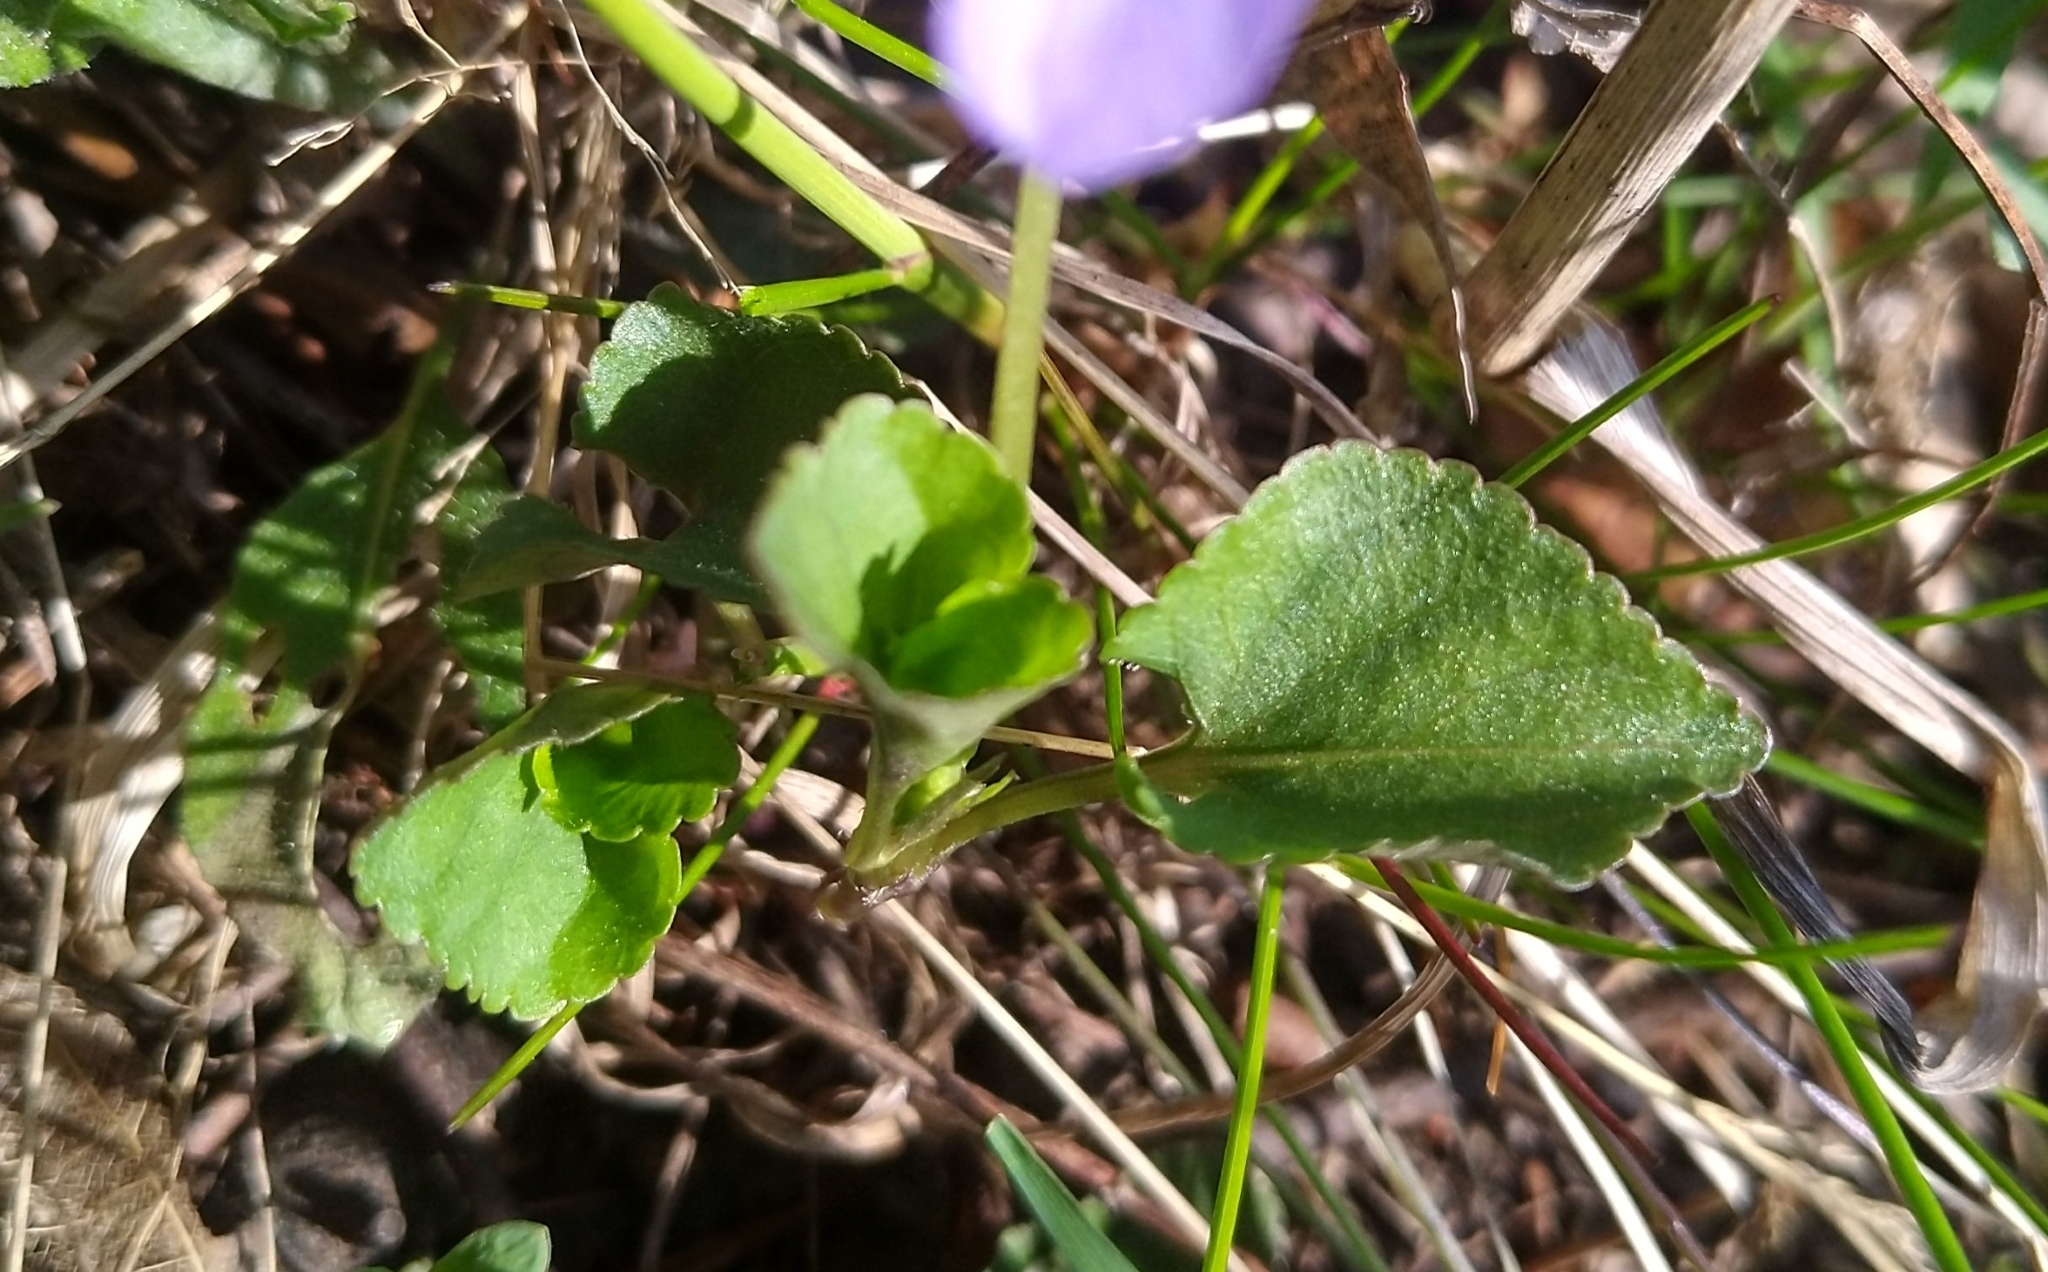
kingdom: Plantae
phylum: Tracheophyta
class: Magnoliopsida
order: Malpighiales
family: Violaceae
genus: Viola
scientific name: Viola riviniana
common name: Common dog-violet
